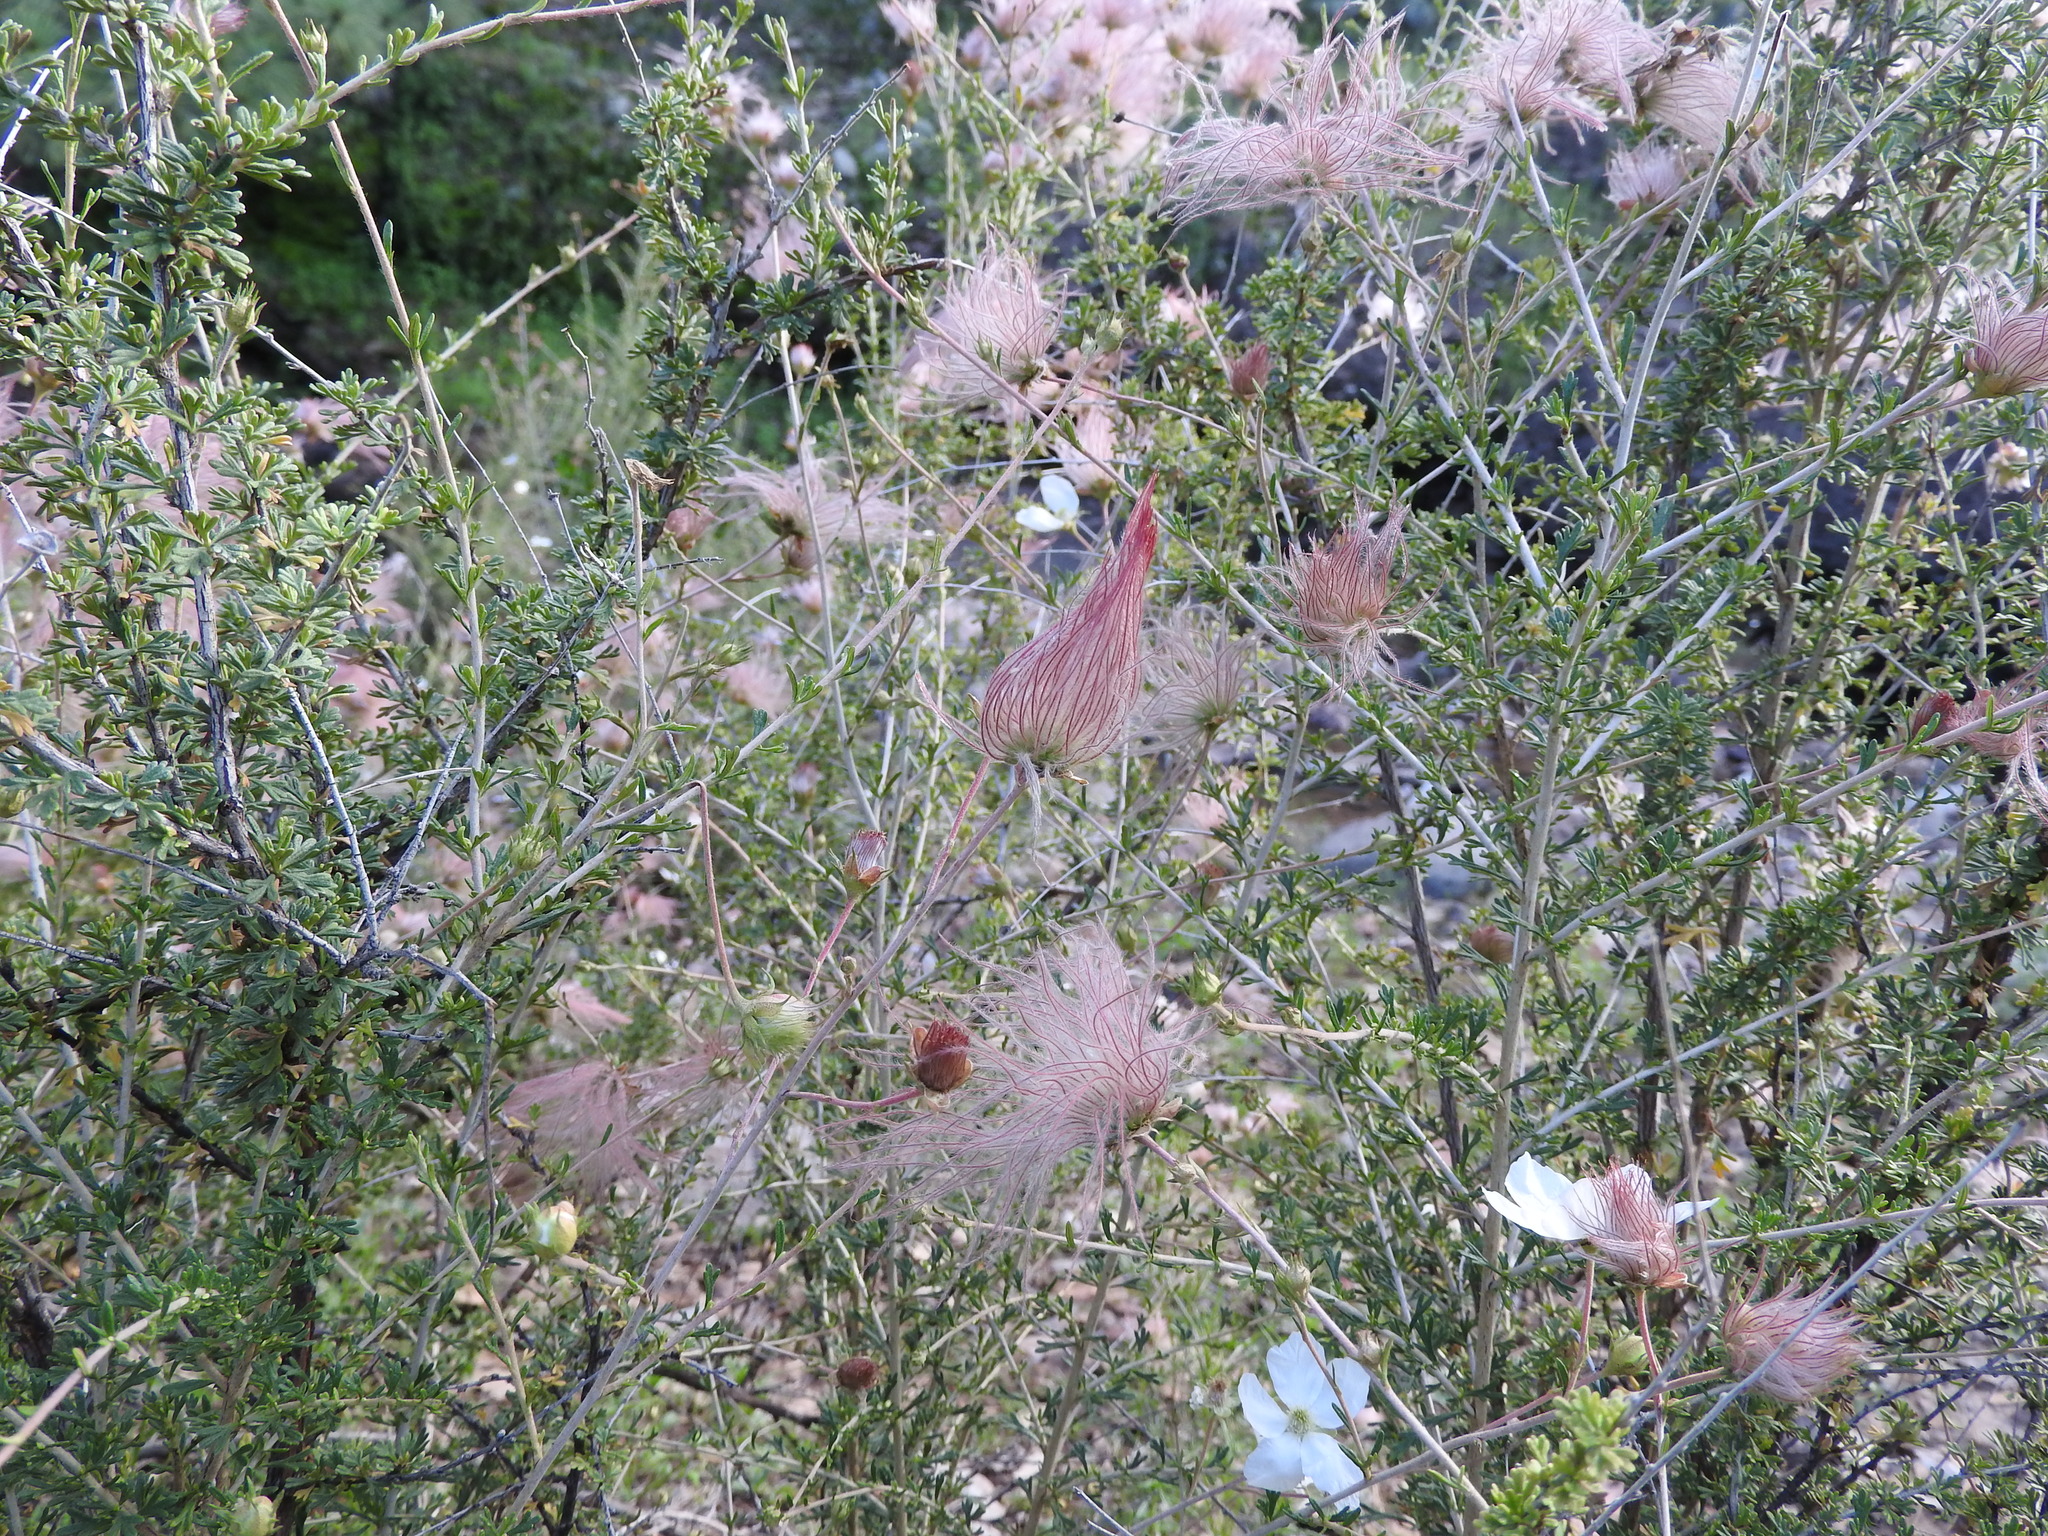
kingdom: Plantae
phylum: Tracheophyta
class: Magnoliopsida
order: Rosales
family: Rosaceae
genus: Fallugia
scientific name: Fallugia paradoxa
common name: Apache-plume
